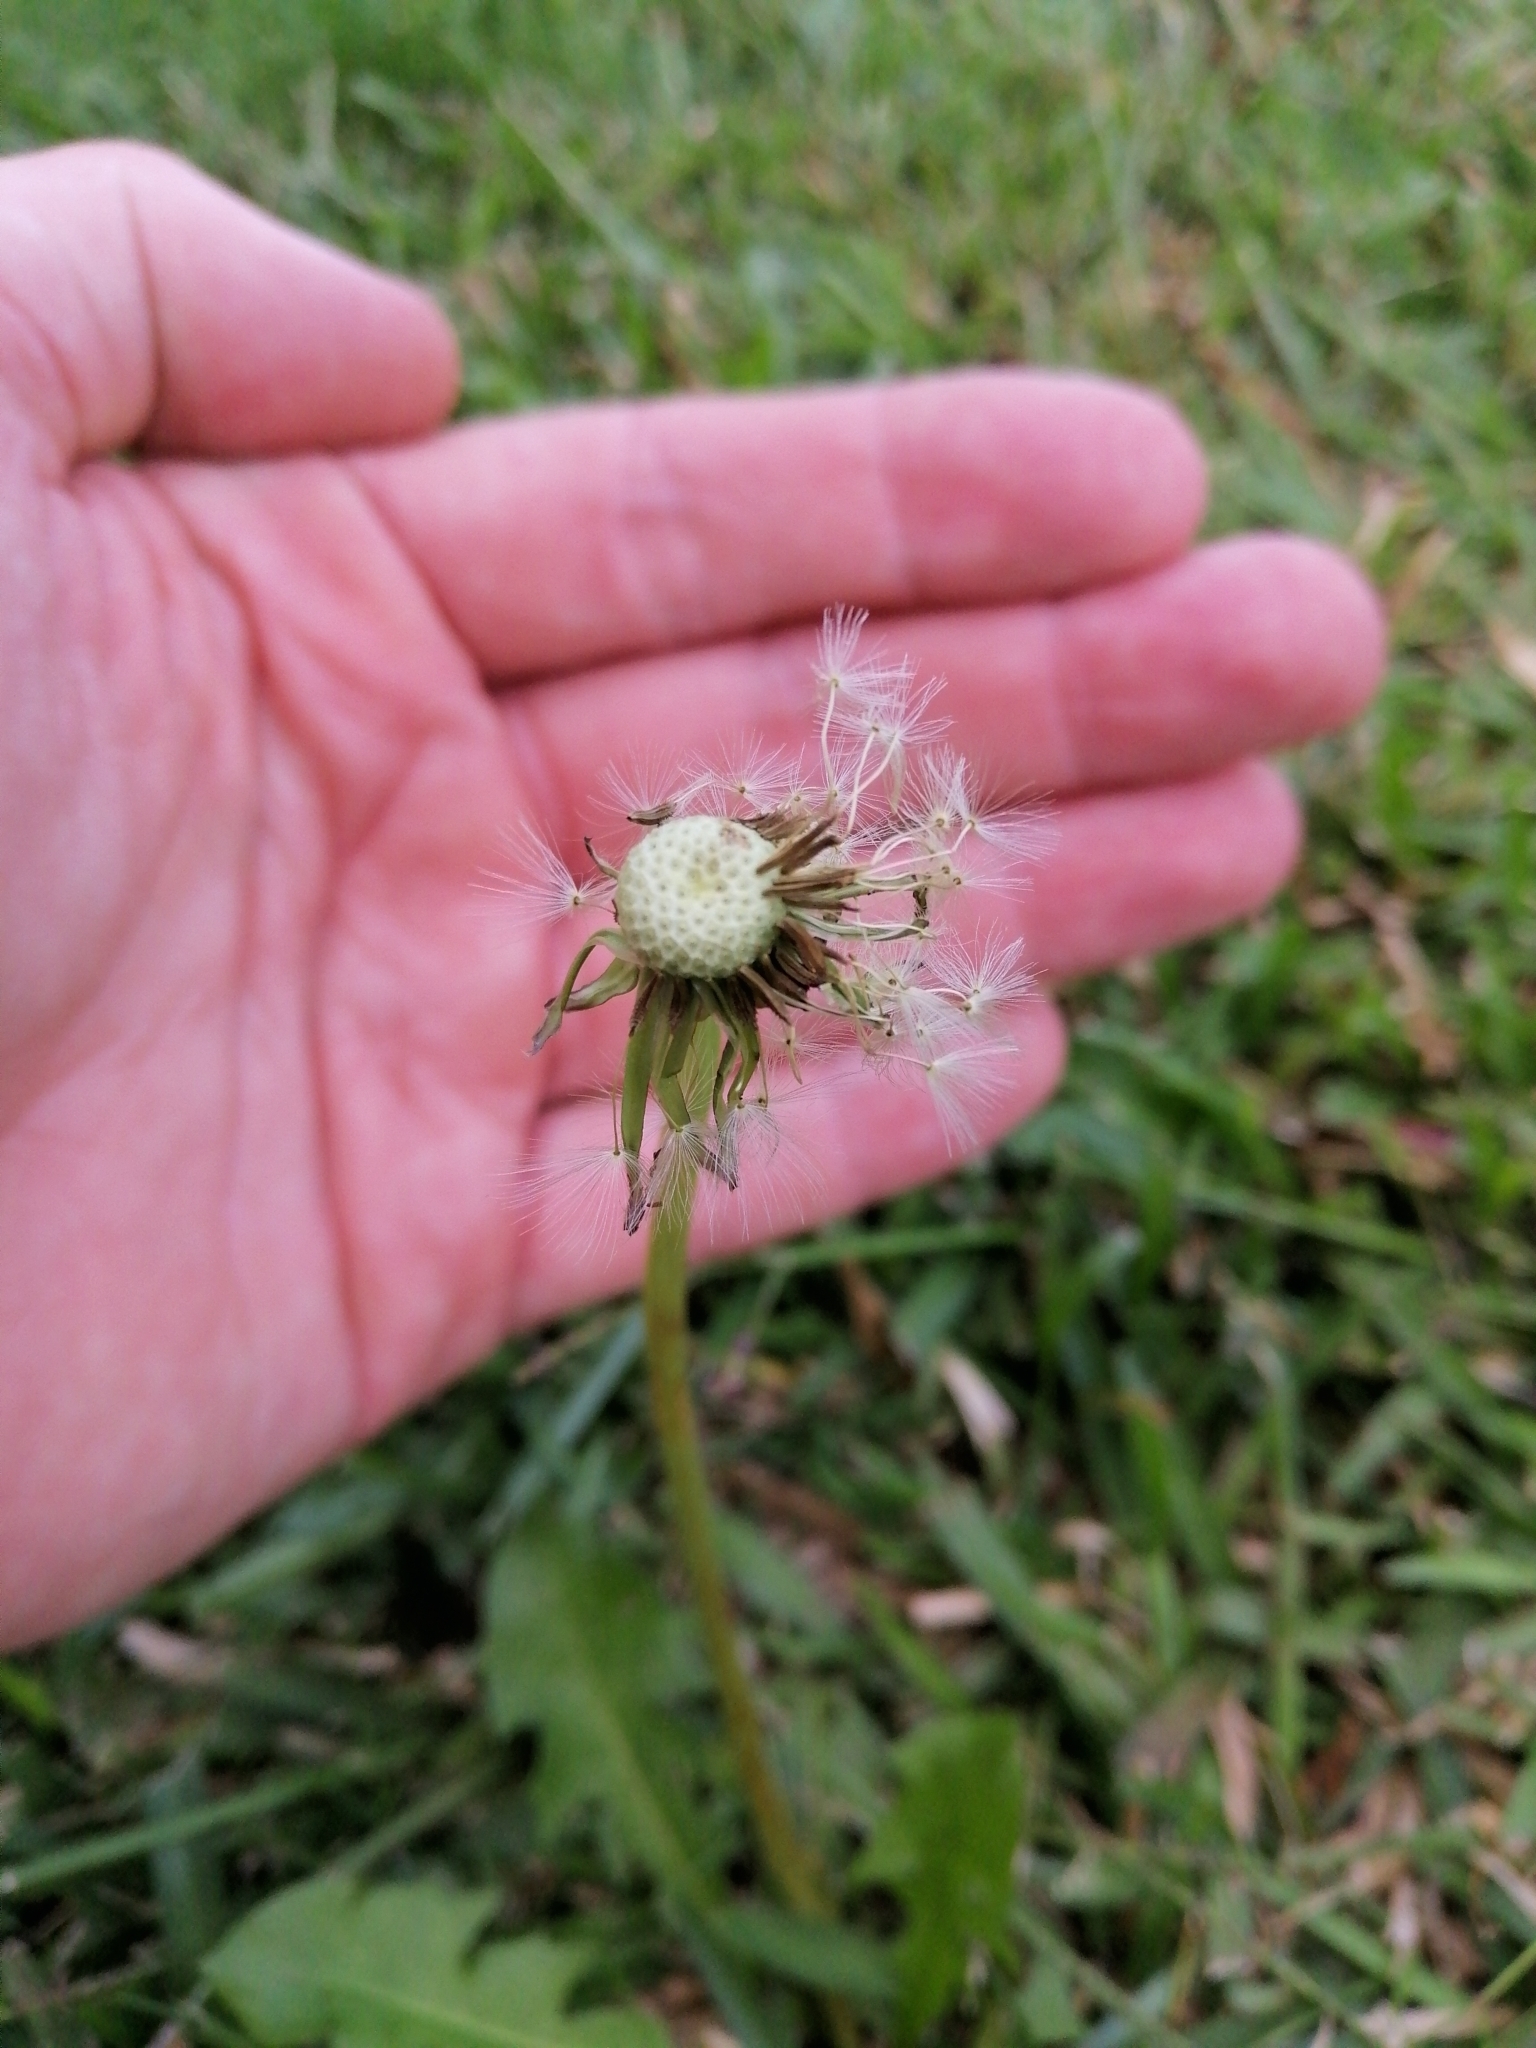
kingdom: Plantae
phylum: Tracheophyta
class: Magnoliopsida
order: Asterales
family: Asteraceae
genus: Taraxacum
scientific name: Taraxacum officinale
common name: Common dandelion
